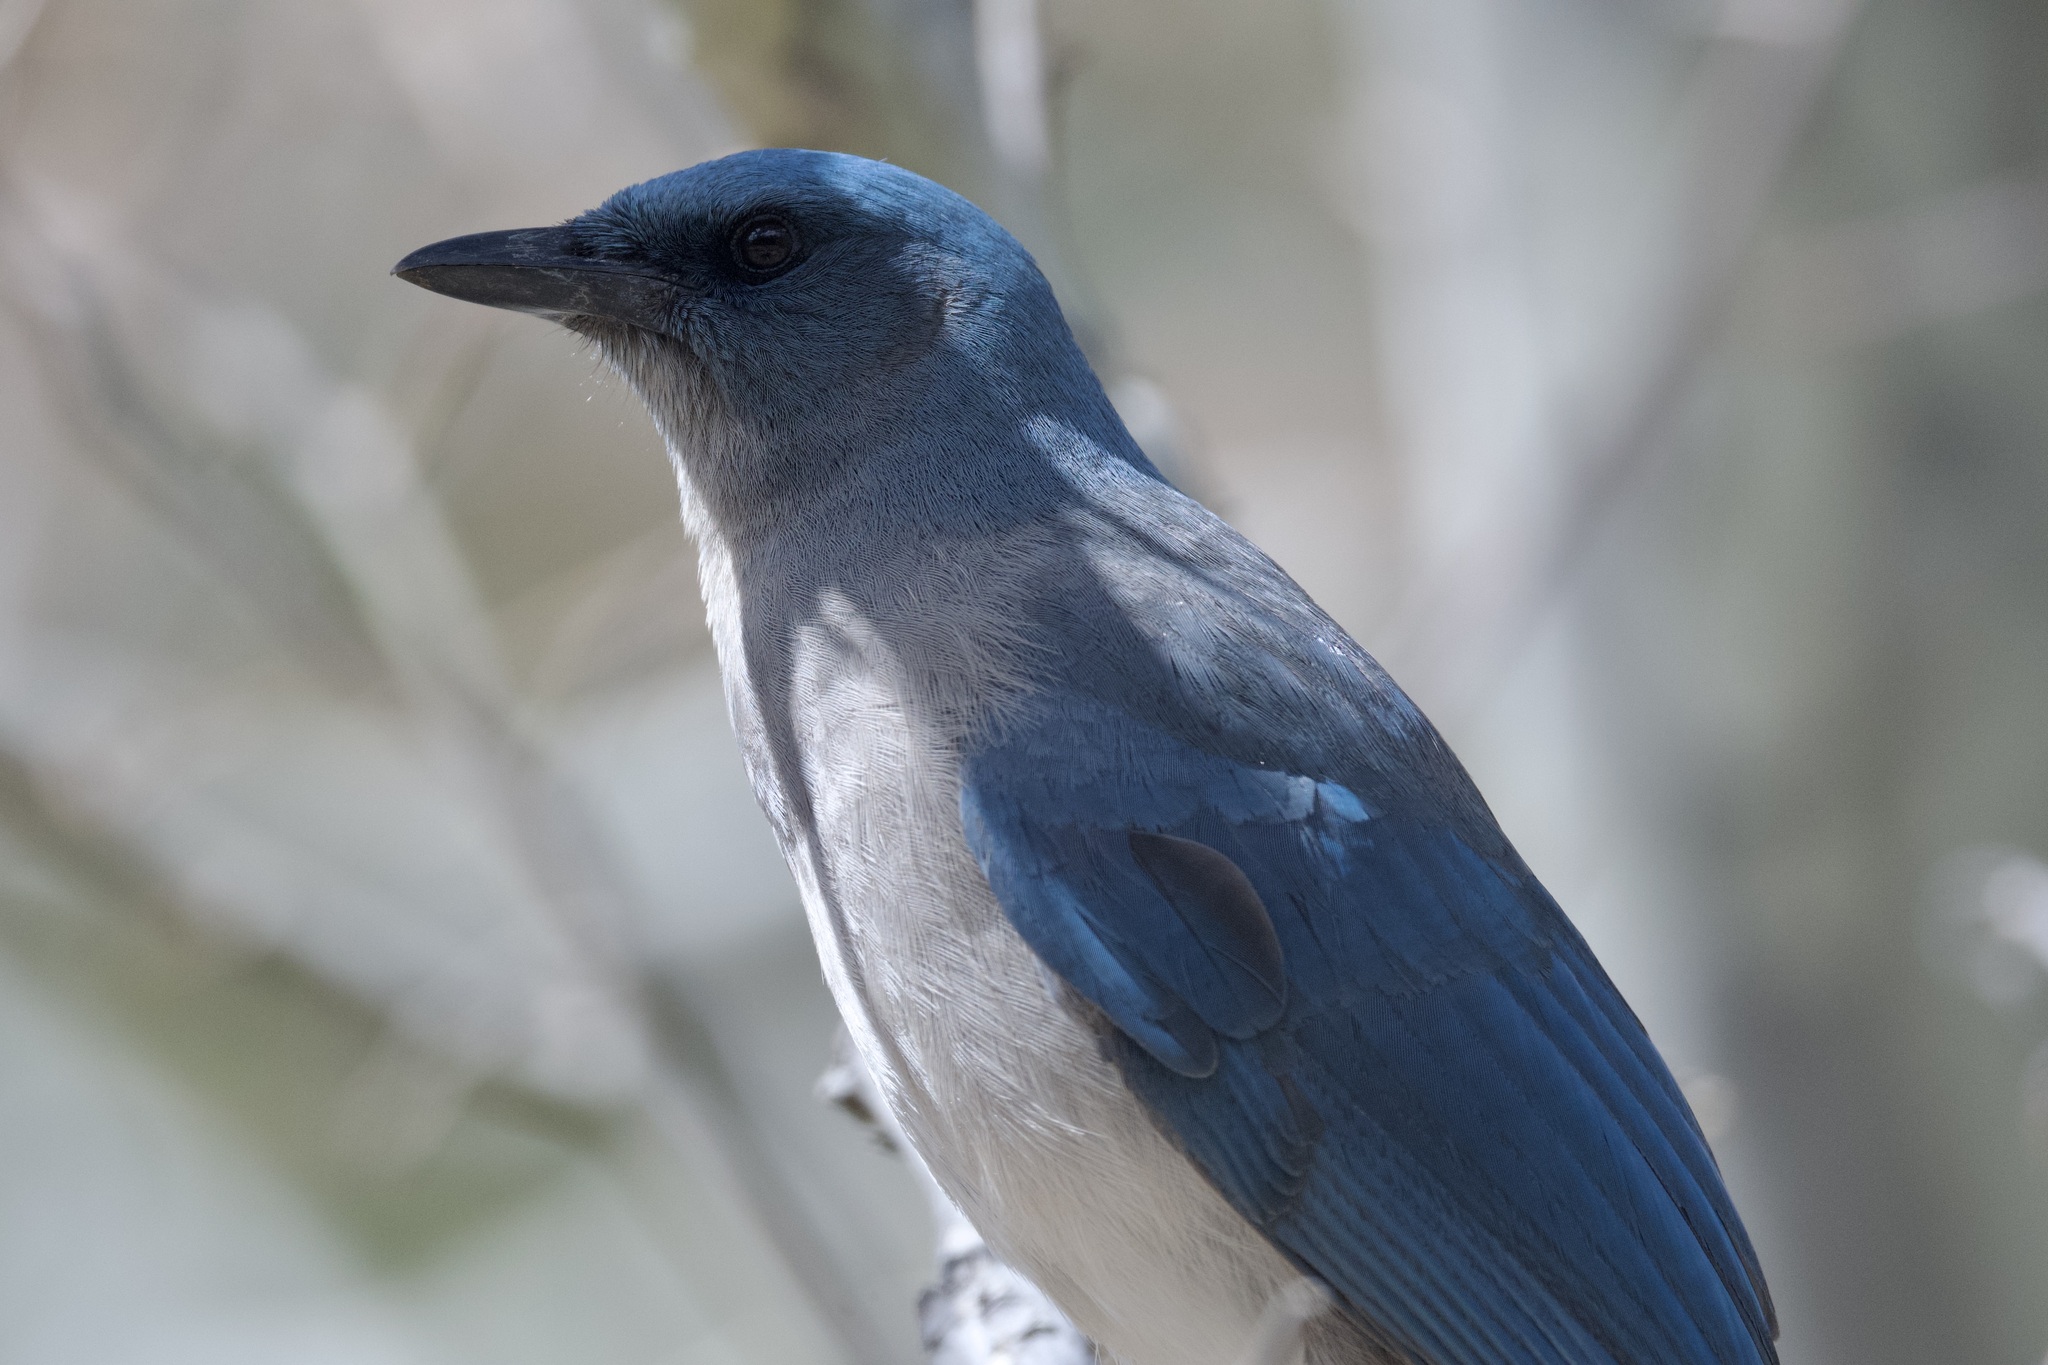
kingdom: Animalia
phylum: Chordata
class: Aves
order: Passeriformes
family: Corvidae
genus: Aphelocoma
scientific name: Aphelocoma wollweberi
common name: Mexican jay
